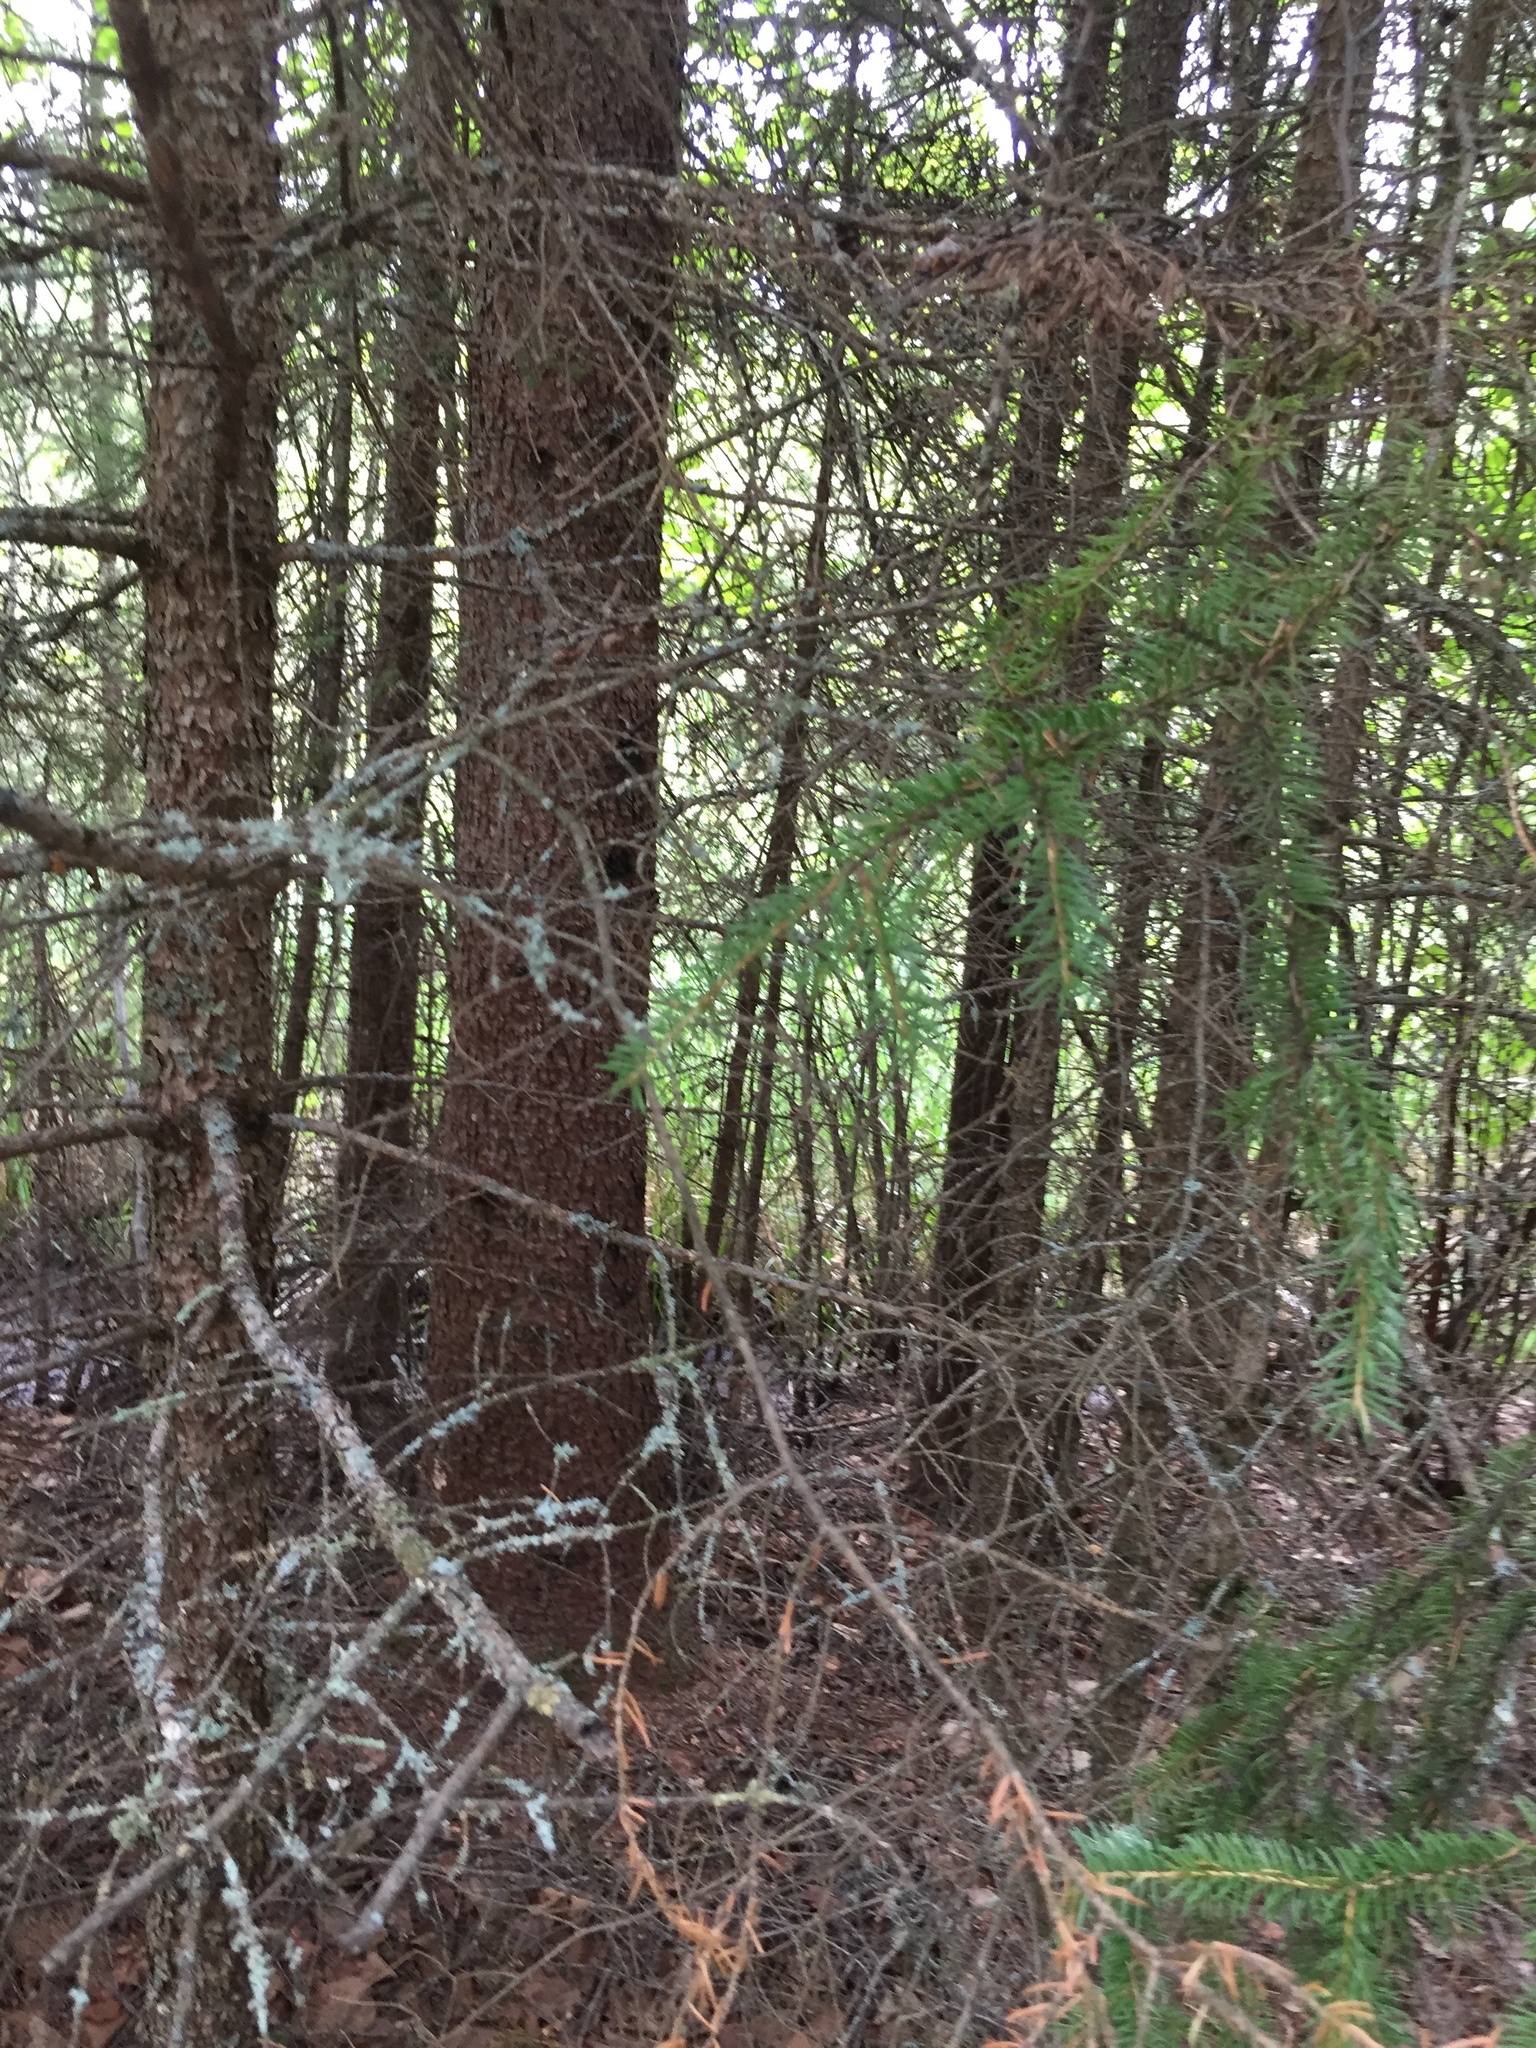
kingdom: Plantae
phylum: Tracheophyta
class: Pinopsida
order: Pinales
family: Pinaceae
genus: Picea
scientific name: Picea mariana
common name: Black spruce
